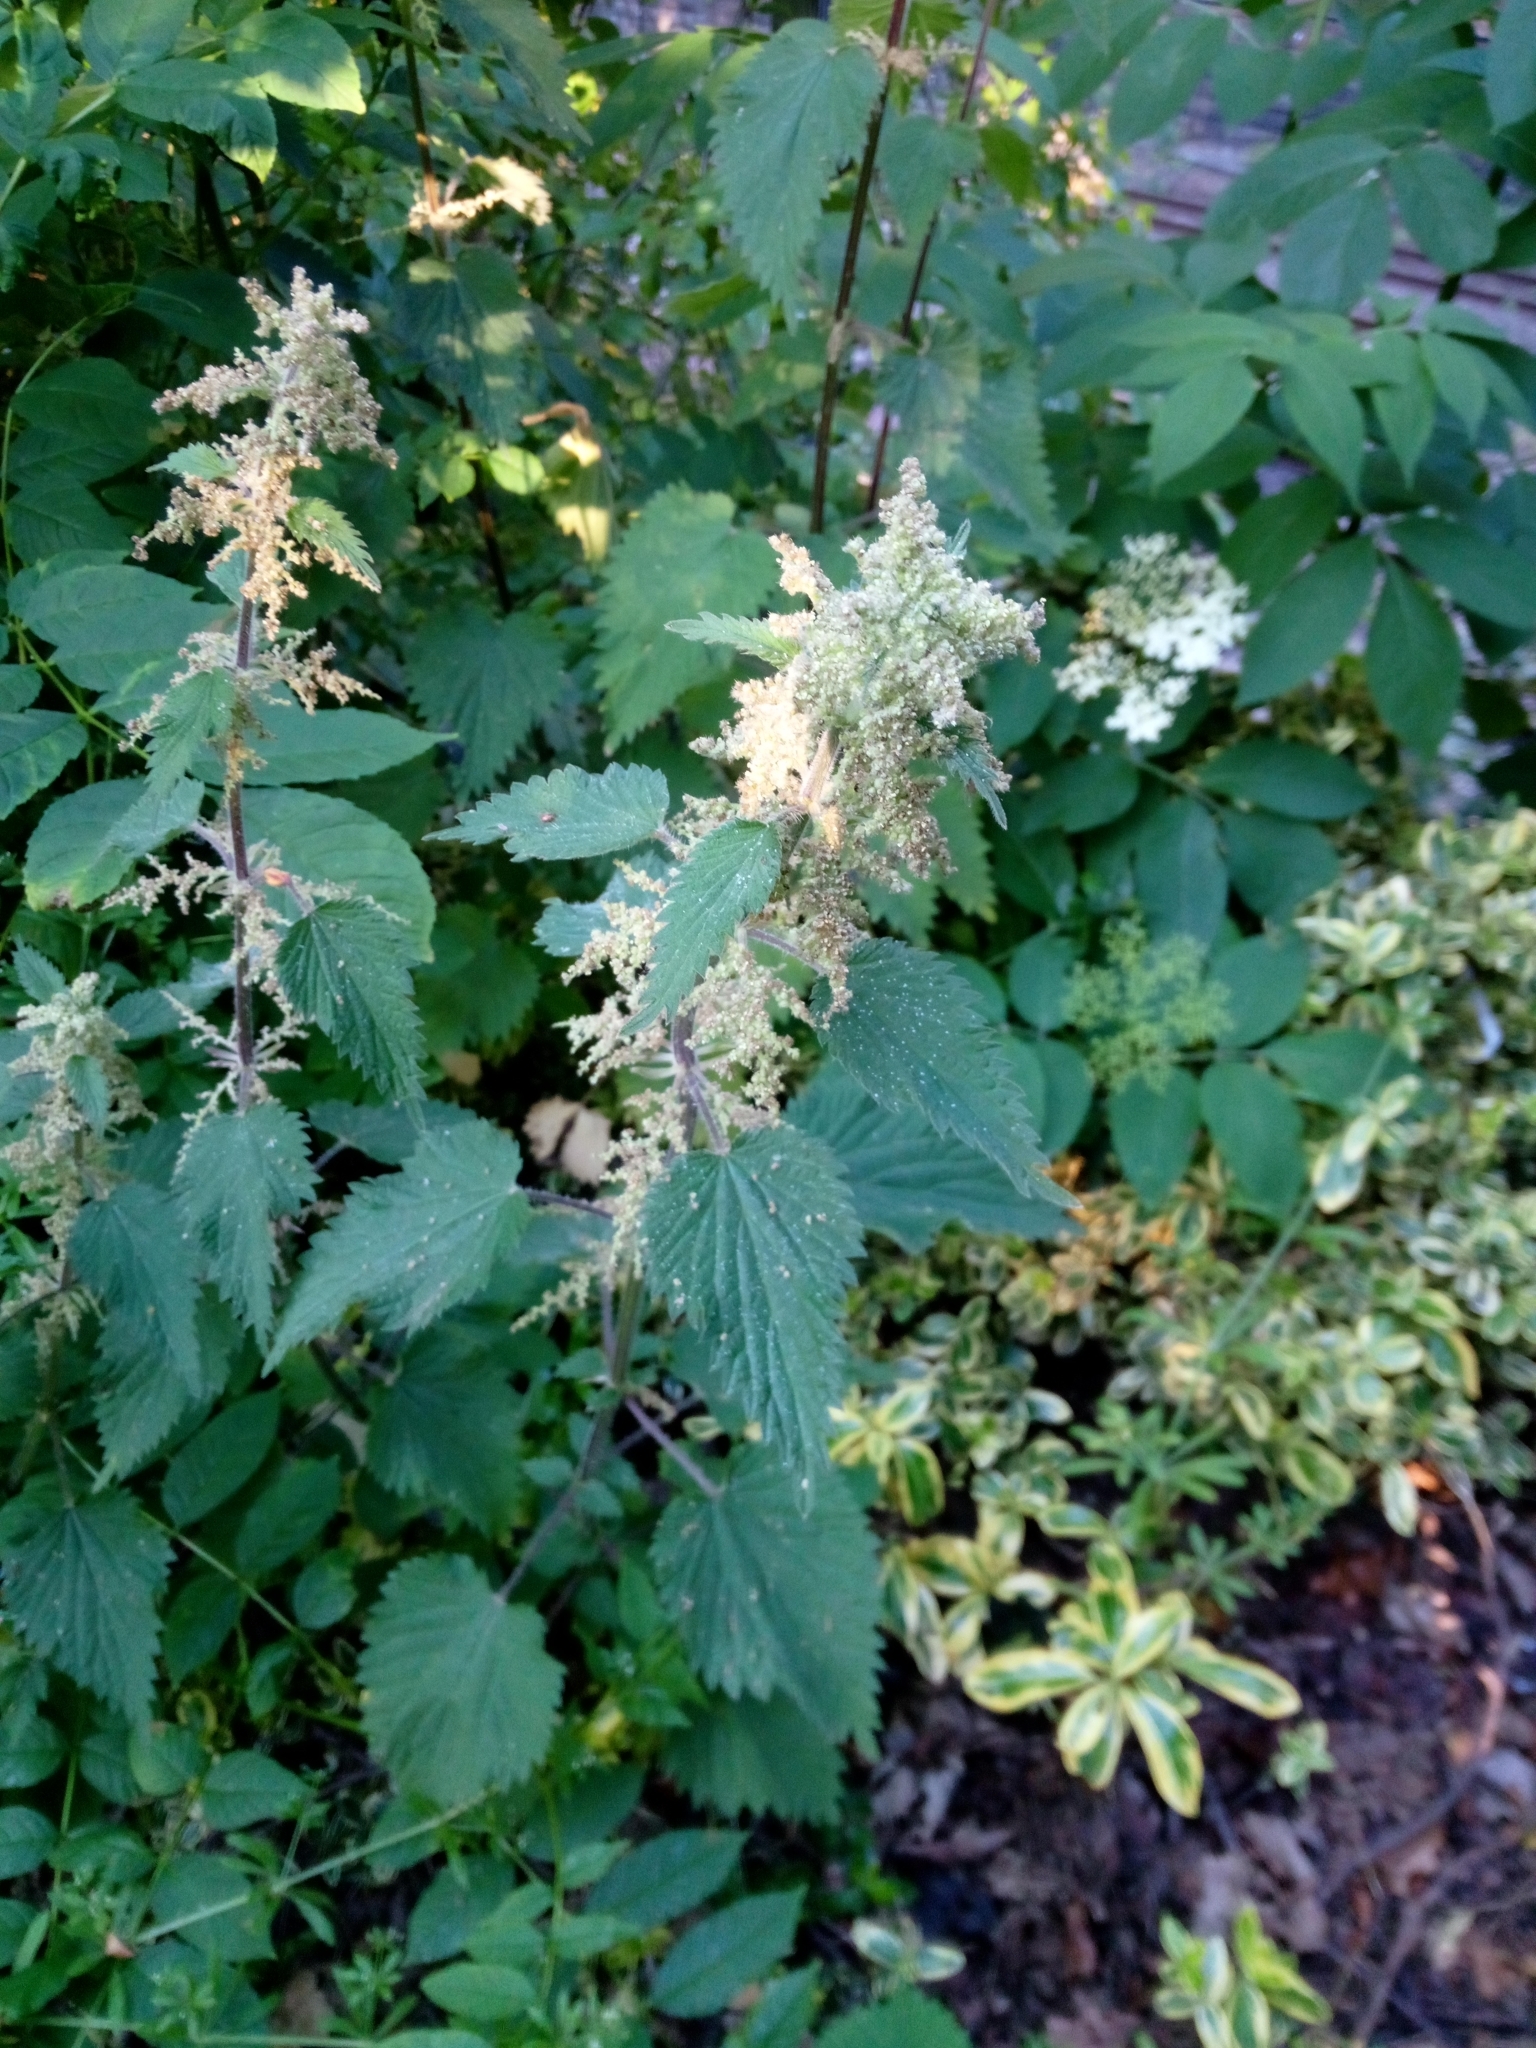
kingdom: Plantae
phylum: Tracheophyta
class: Magnoliopsida
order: Rosales
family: Urticaceae
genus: Urtica
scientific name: Urtica dioica
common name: Common nettle
